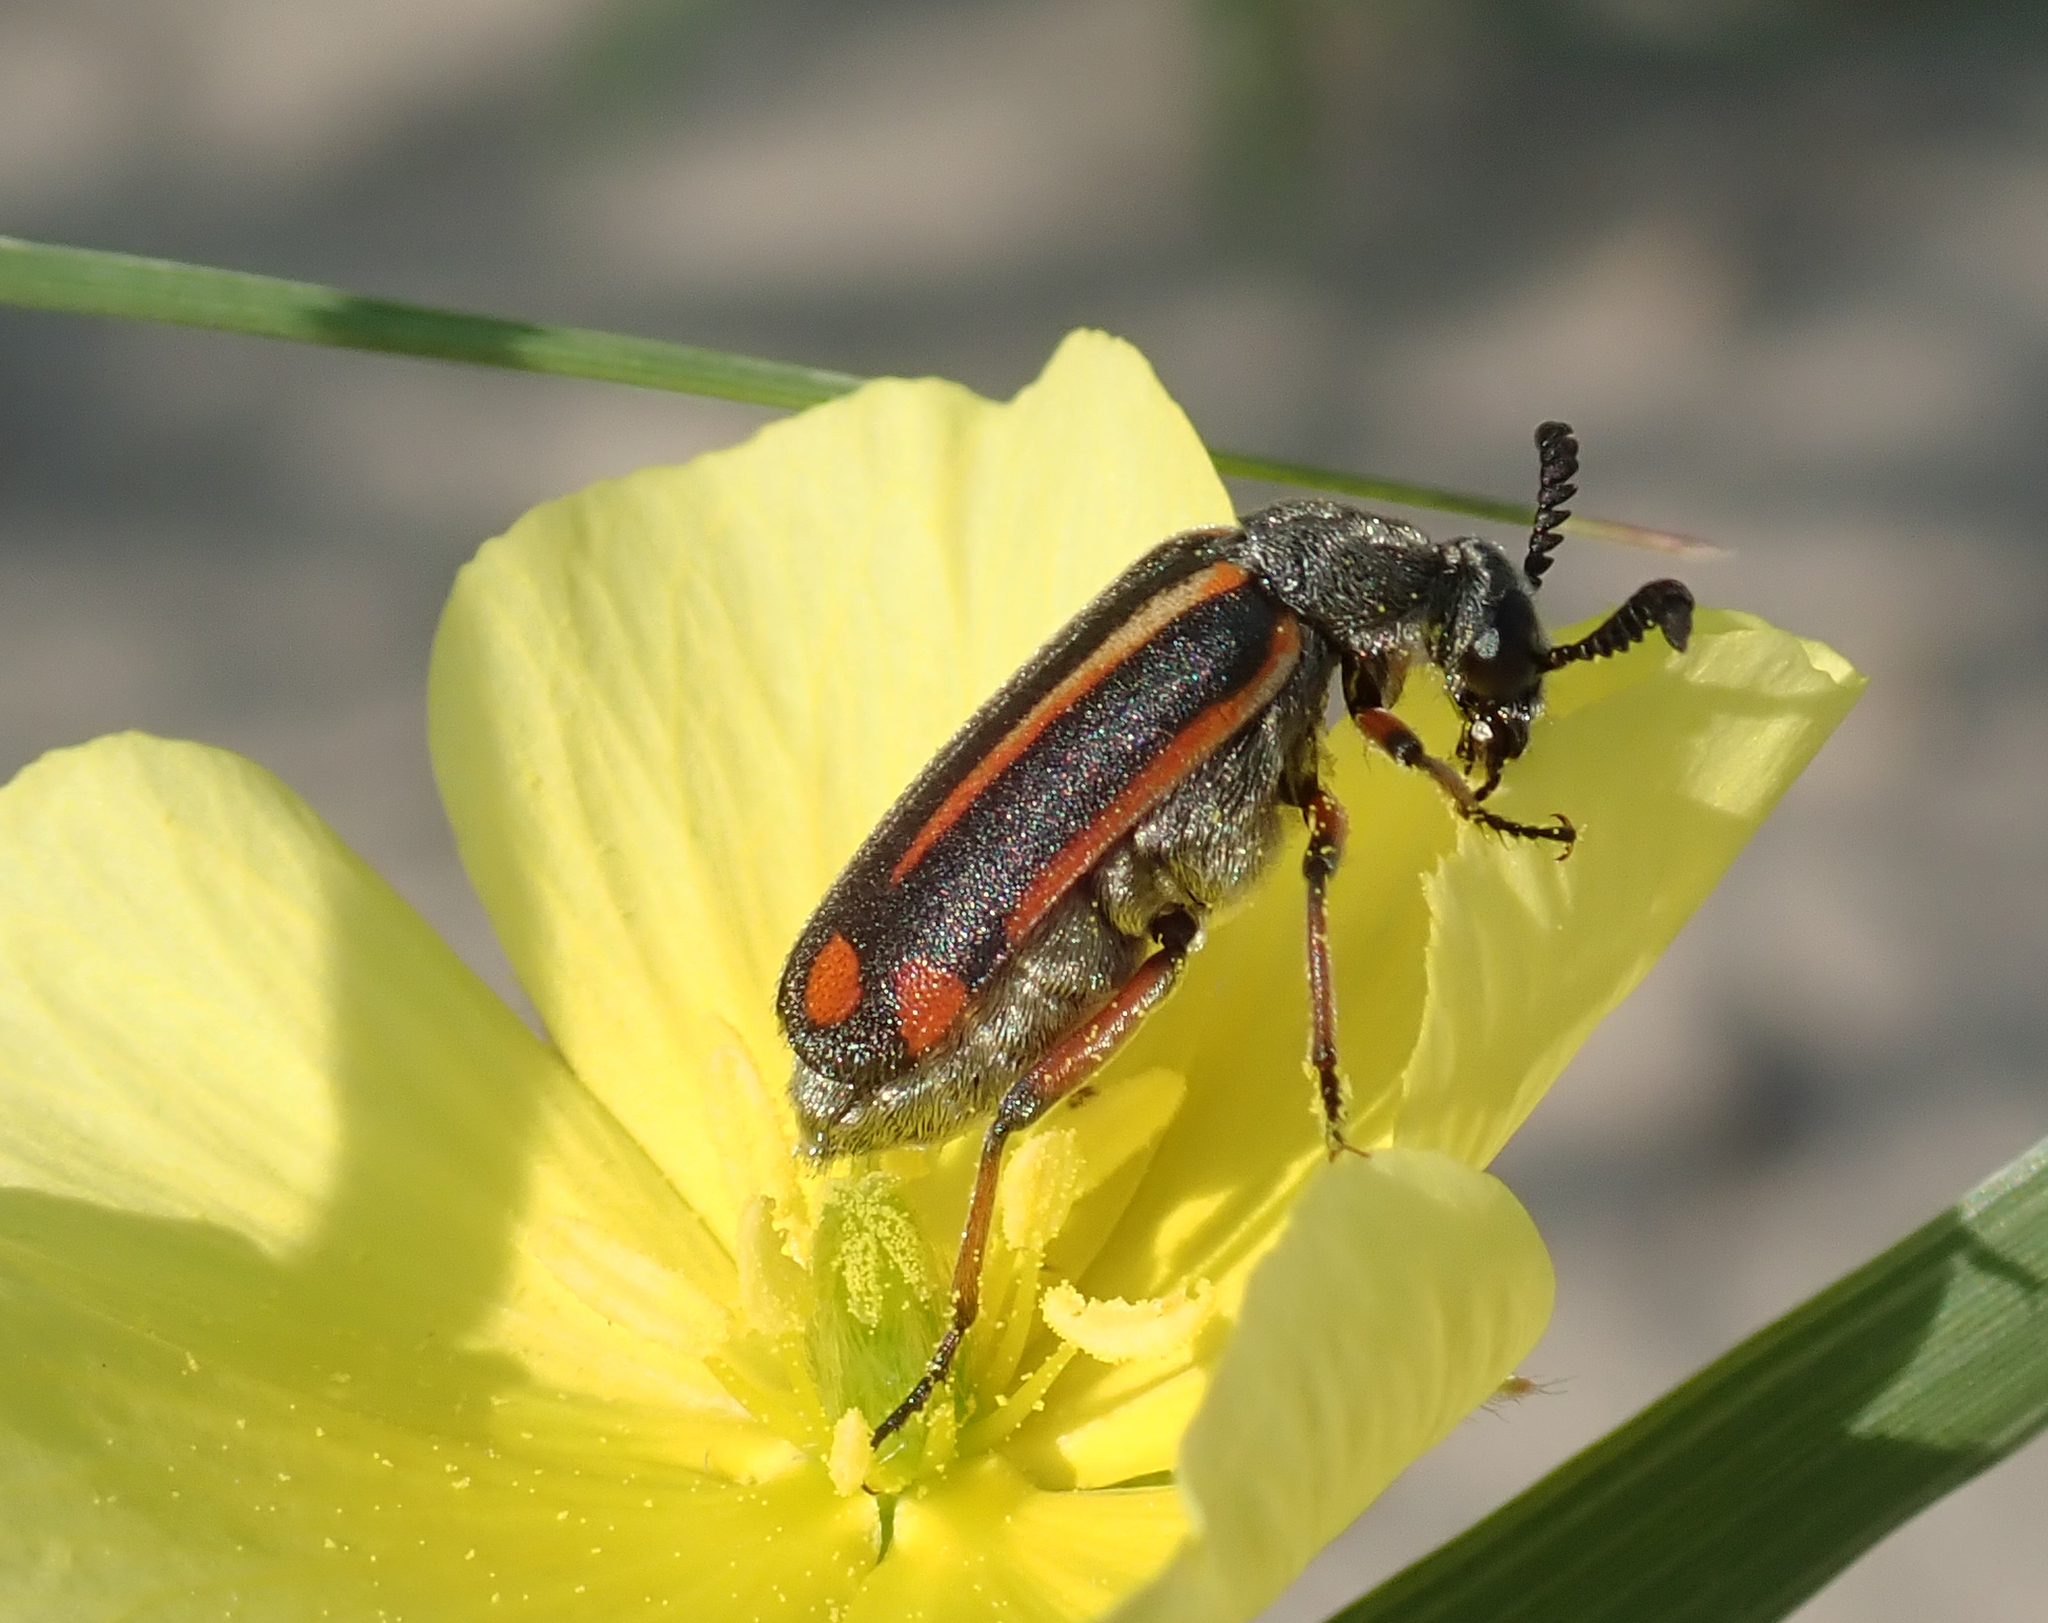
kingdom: Animalia
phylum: Arthropoda
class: Insecta
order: Coleoptera
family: Meloidae
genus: Ceroctis
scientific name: Ceroctis angolensis
